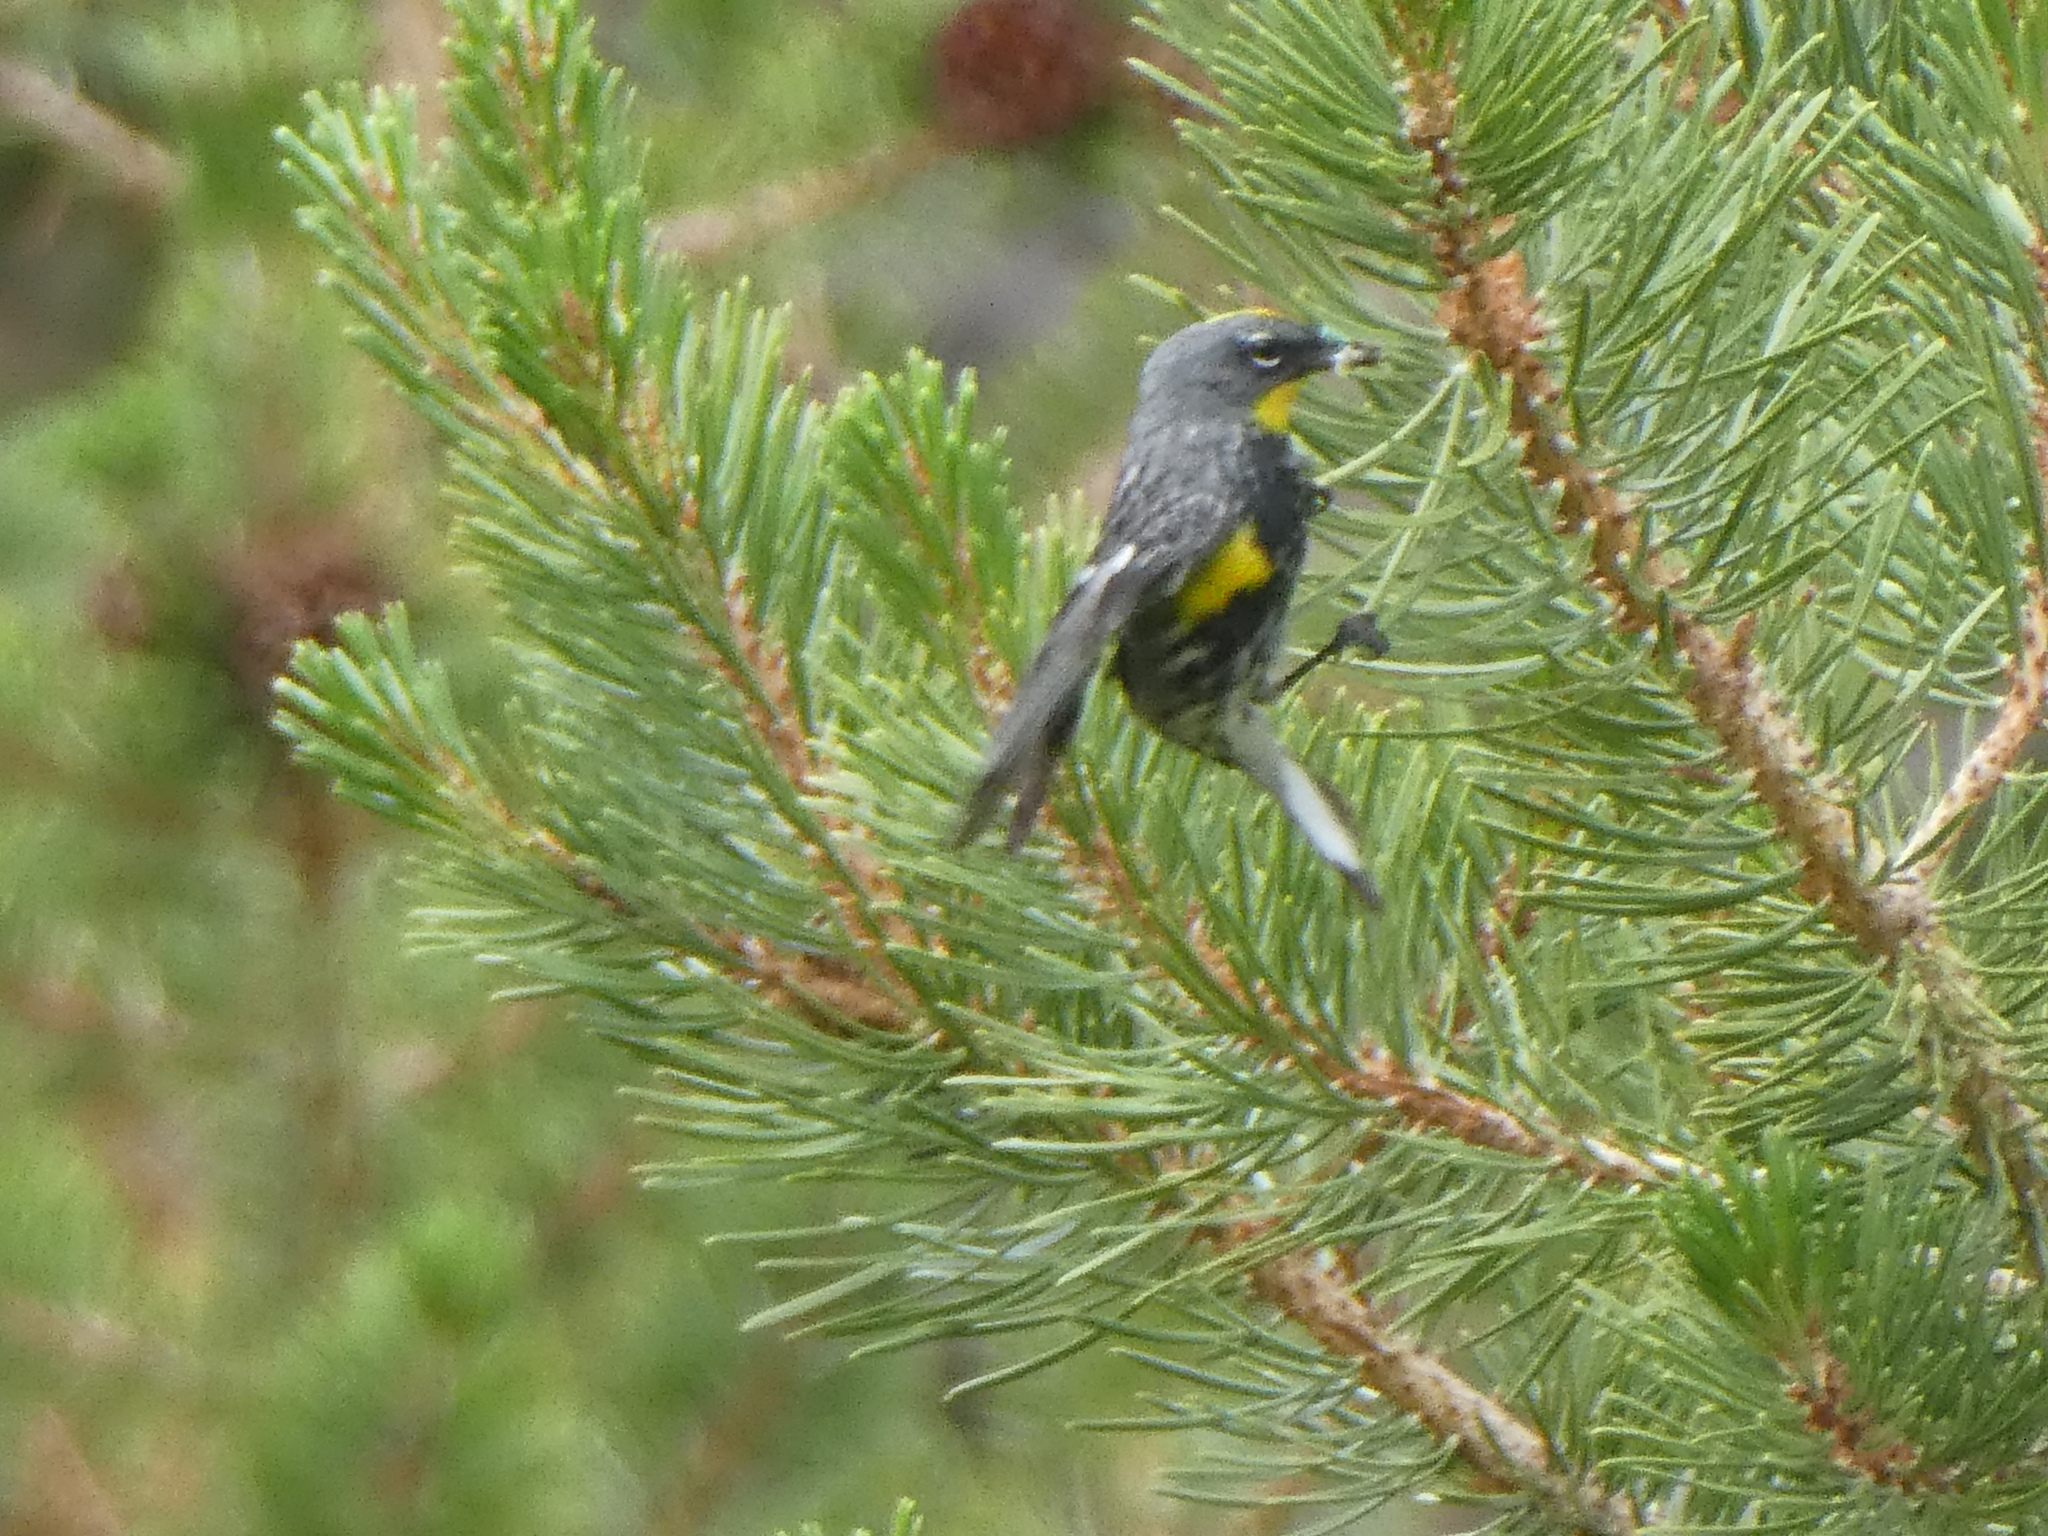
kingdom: Animalia
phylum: Chordata
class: Aves
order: Passeriformes
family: Parulidae
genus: Setophaga
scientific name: Setophaga coronata
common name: Myrtle warbler
